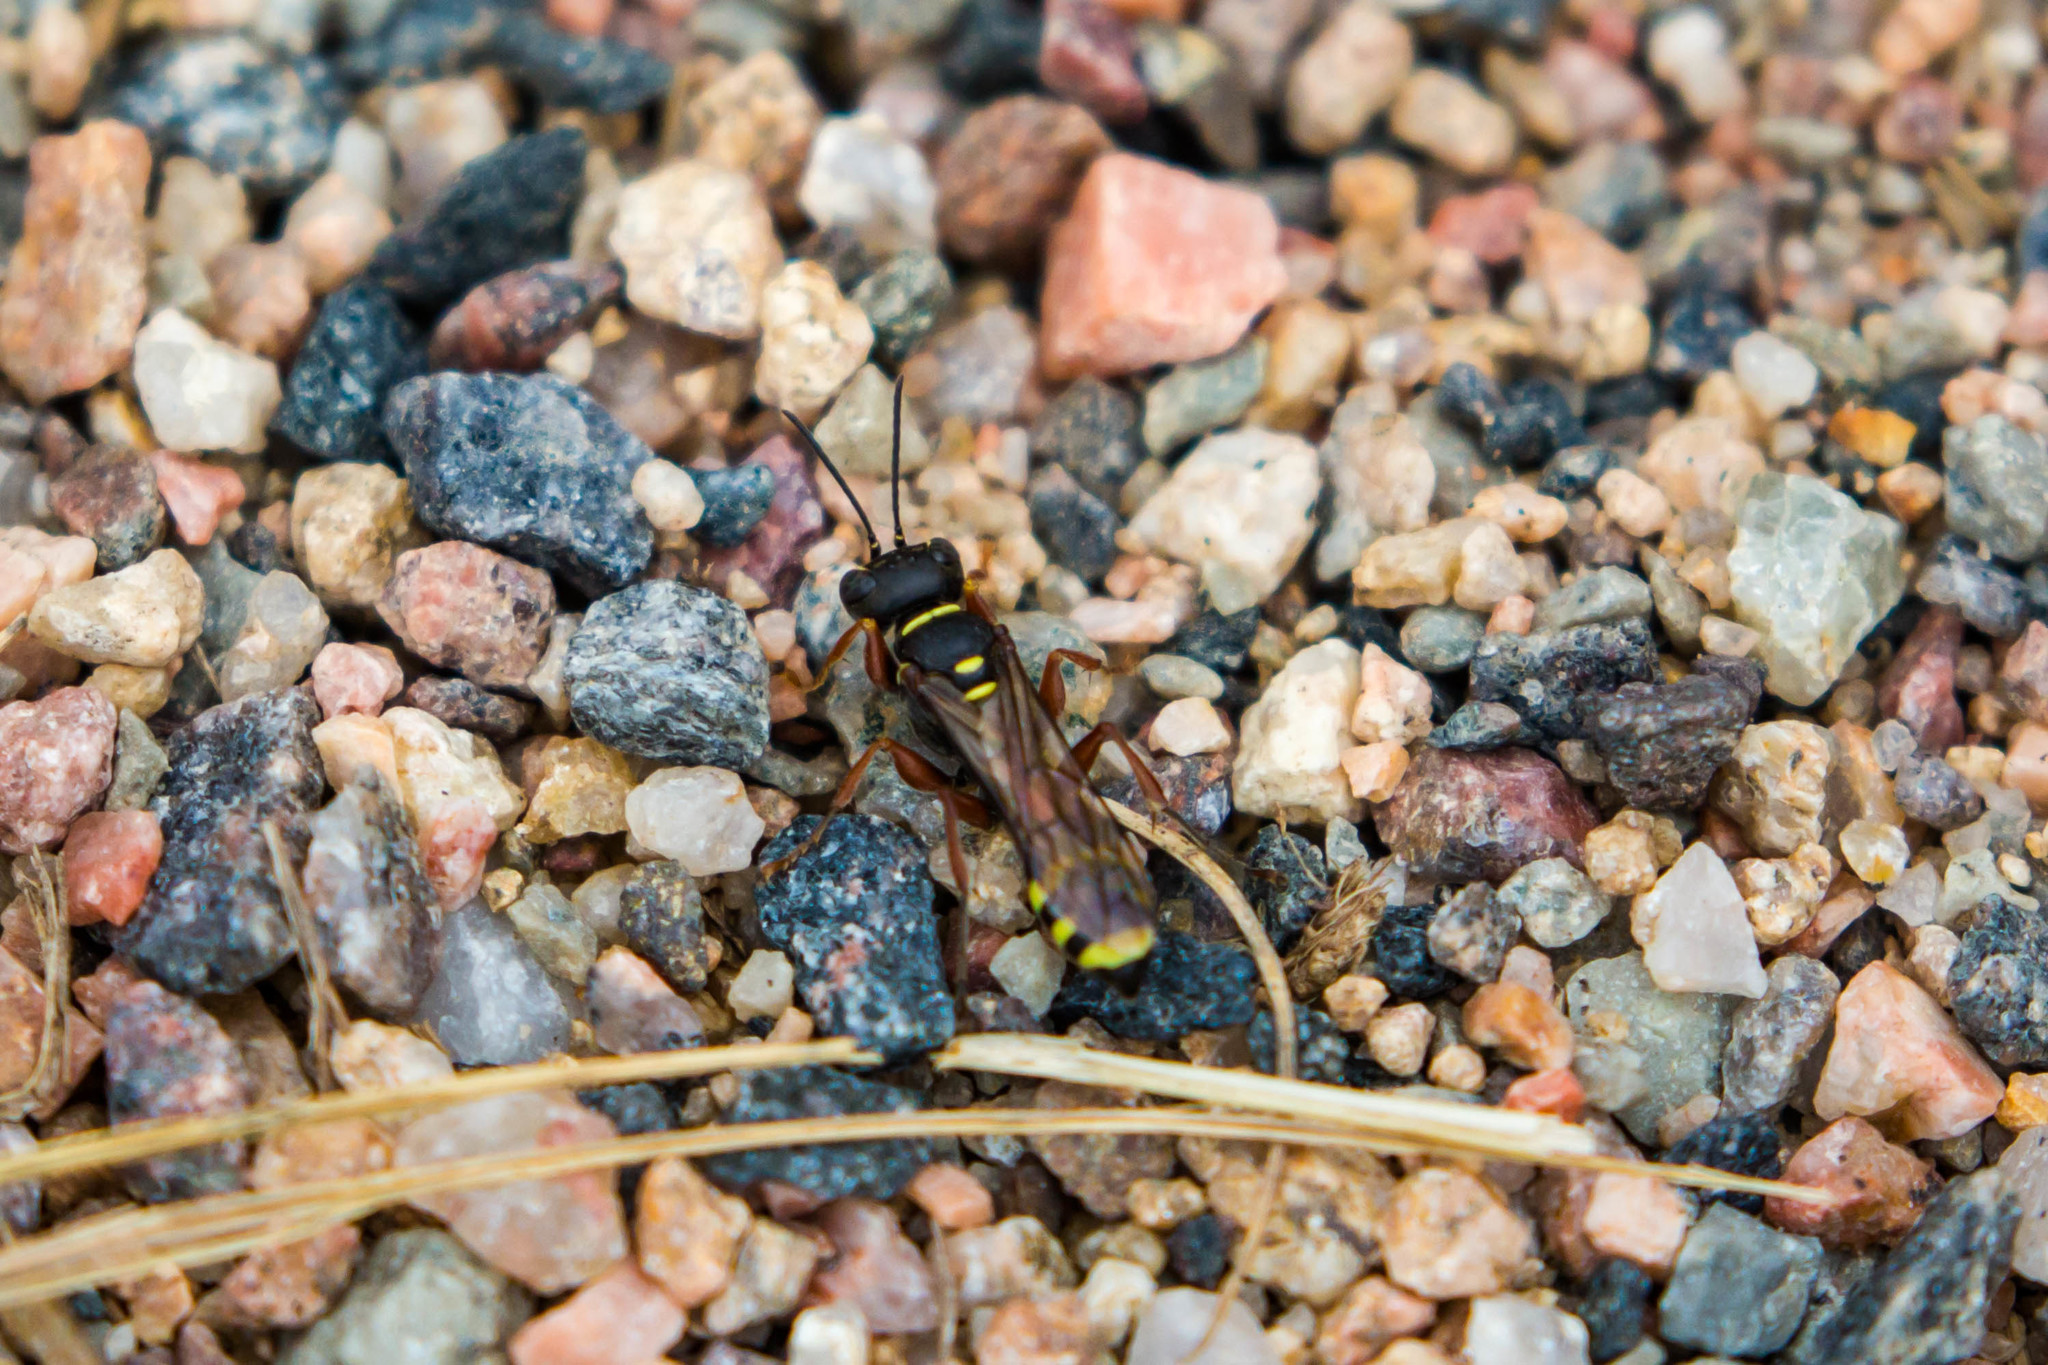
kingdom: Animalia
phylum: Arthropoda
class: Insecta
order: Hymenoptera
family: Crabronidae
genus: Mellinus
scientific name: Mellinus rufinodus
